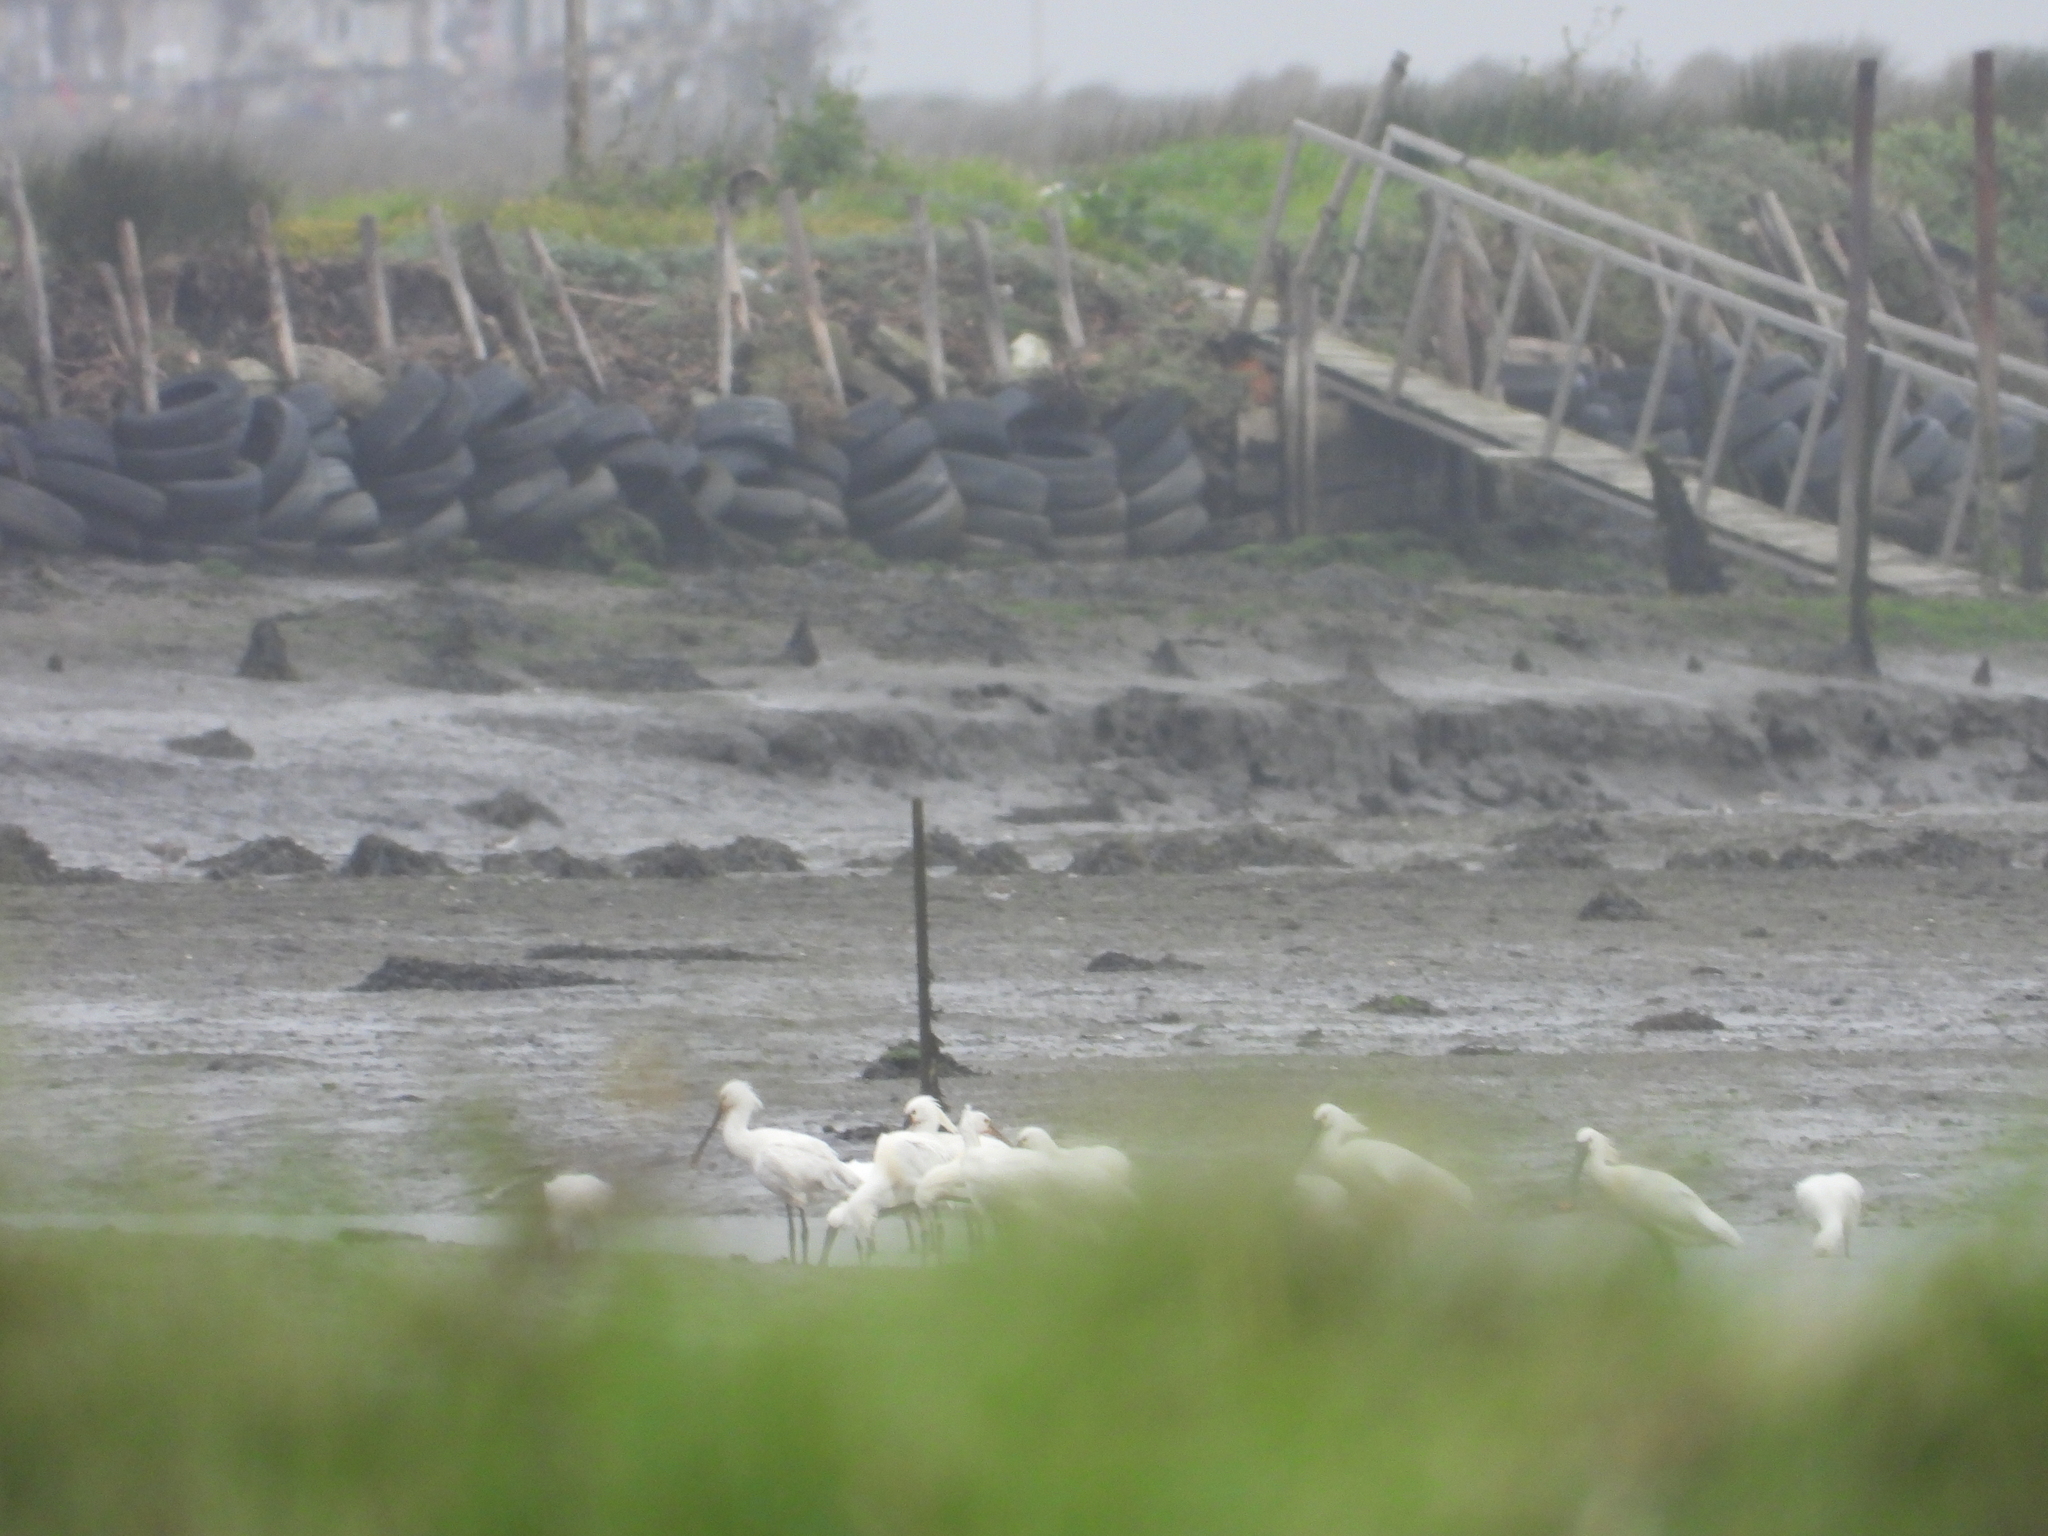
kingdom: Animalia
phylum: Chordata
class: Aves
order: Pelecaniformes
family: Threskiornithidae
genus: Platalea
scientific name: Platalea leucorodia
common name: Eurasian spoonbill
